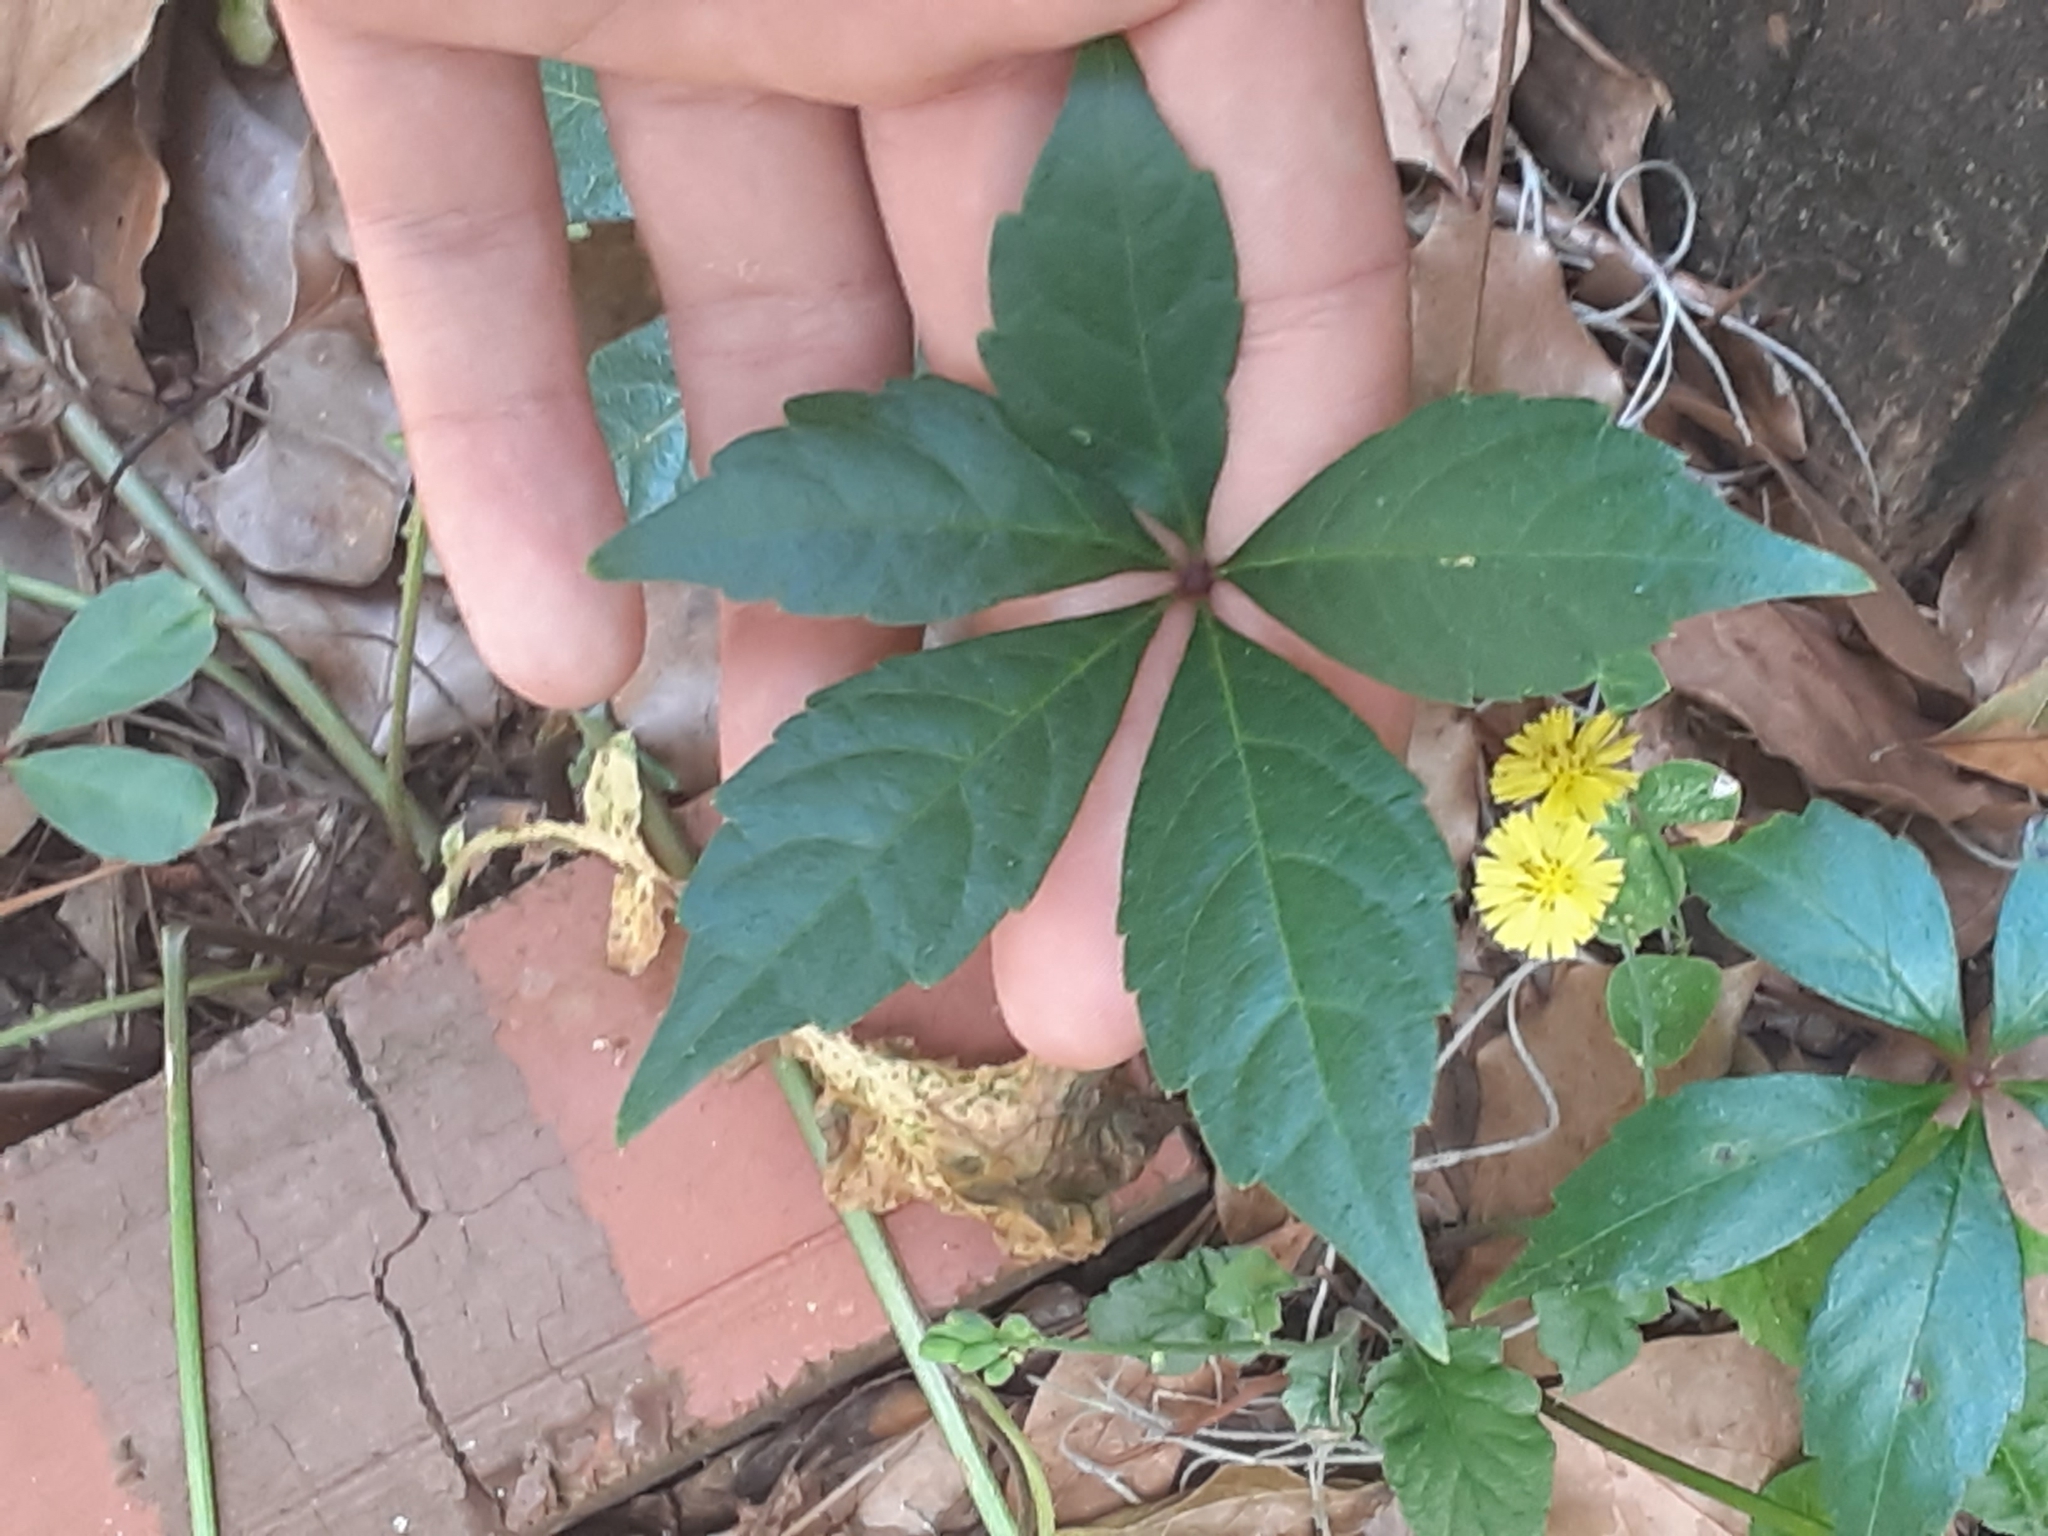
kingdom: Plantae
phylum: Tracheophyta
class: Magnoliopsida
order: Vitales
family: Vitaceae
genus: Parthenocissus
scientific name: Parthenocissus quinquefolia
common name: Virginia-creeper
